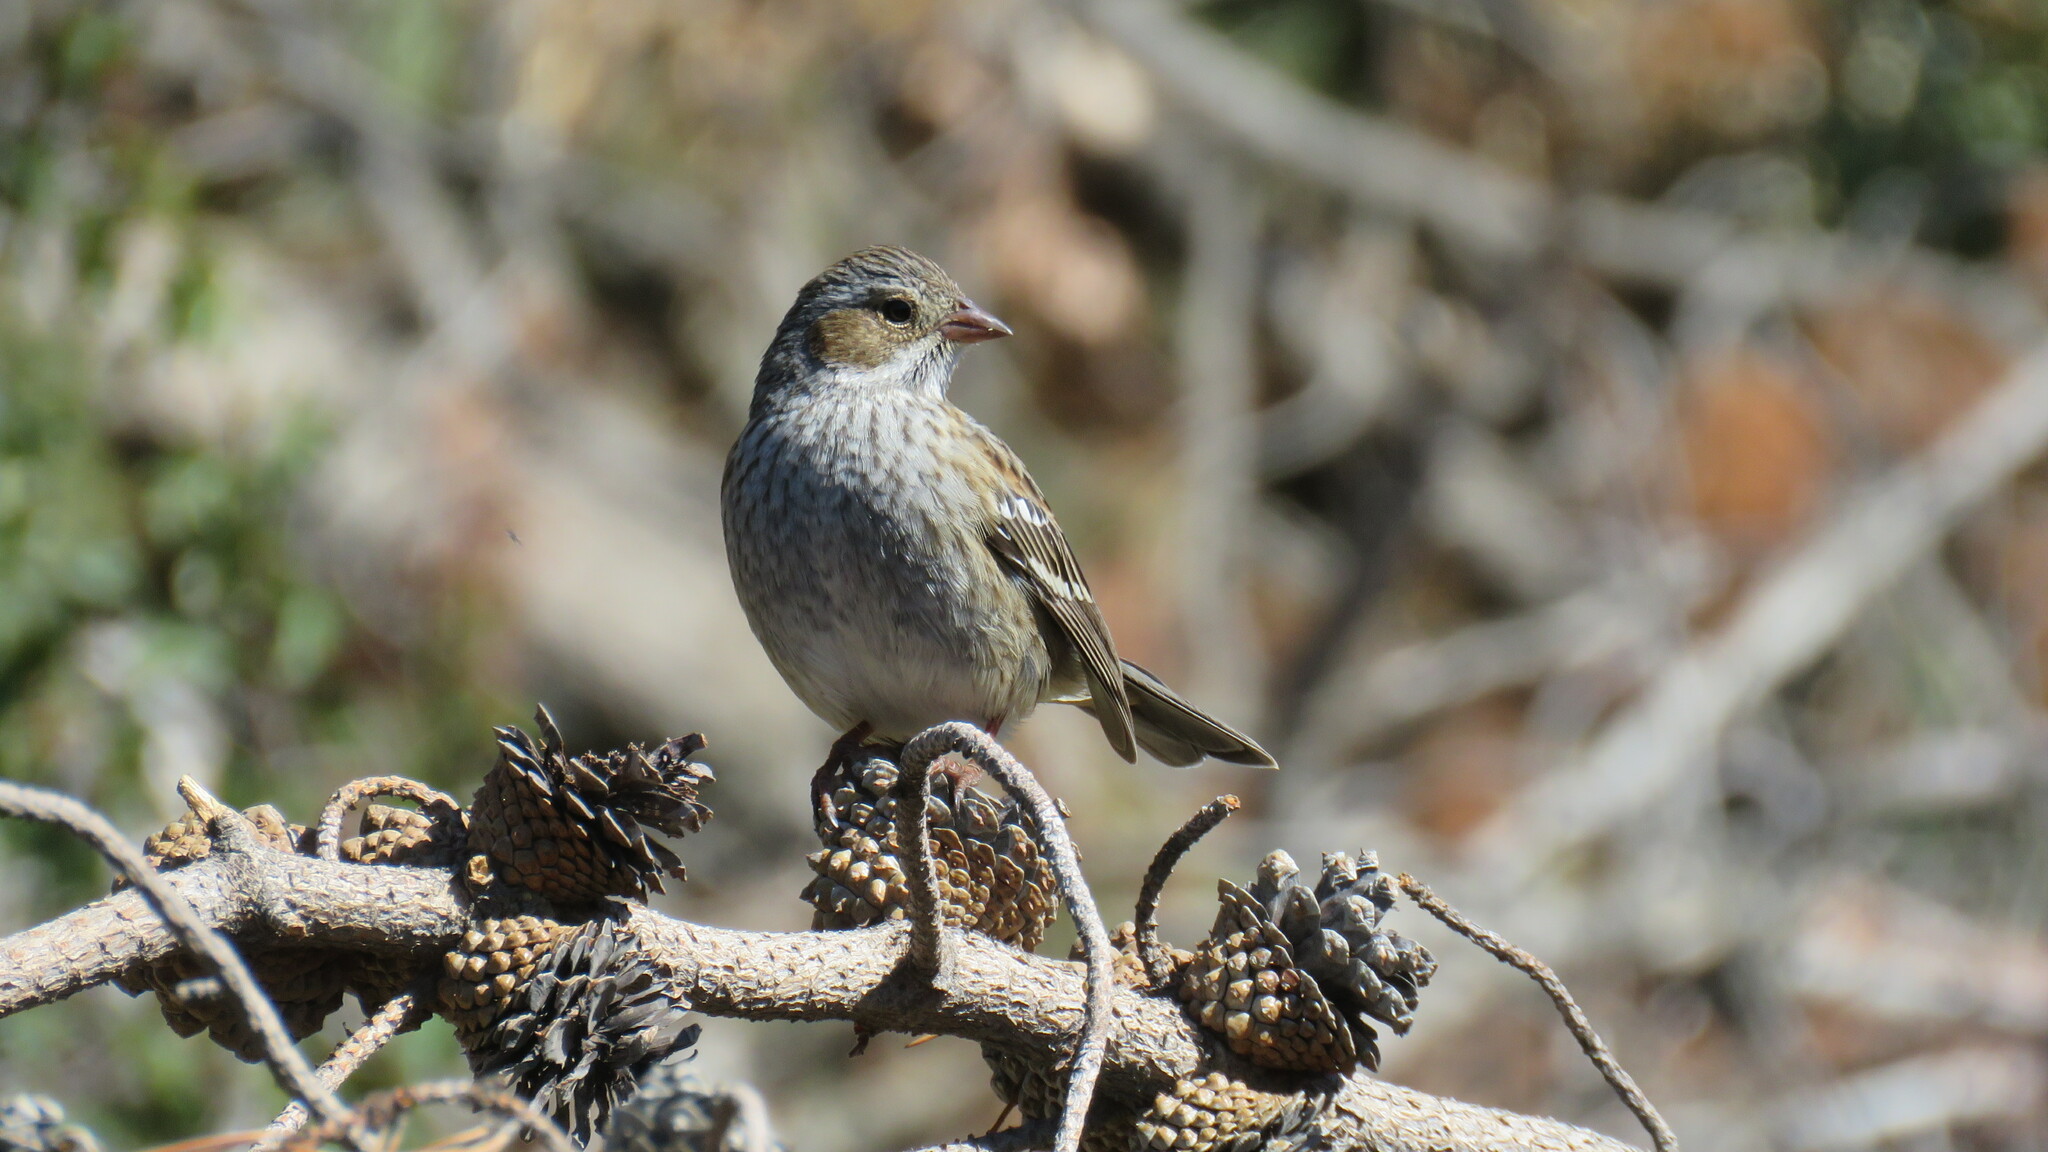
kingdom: Animalia
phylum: Chordata
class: Aves
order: Passeriformes
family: Thraupidae
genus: Rhopospina
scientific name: Rhopospina fruticeti
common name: Mourning sierra finch
